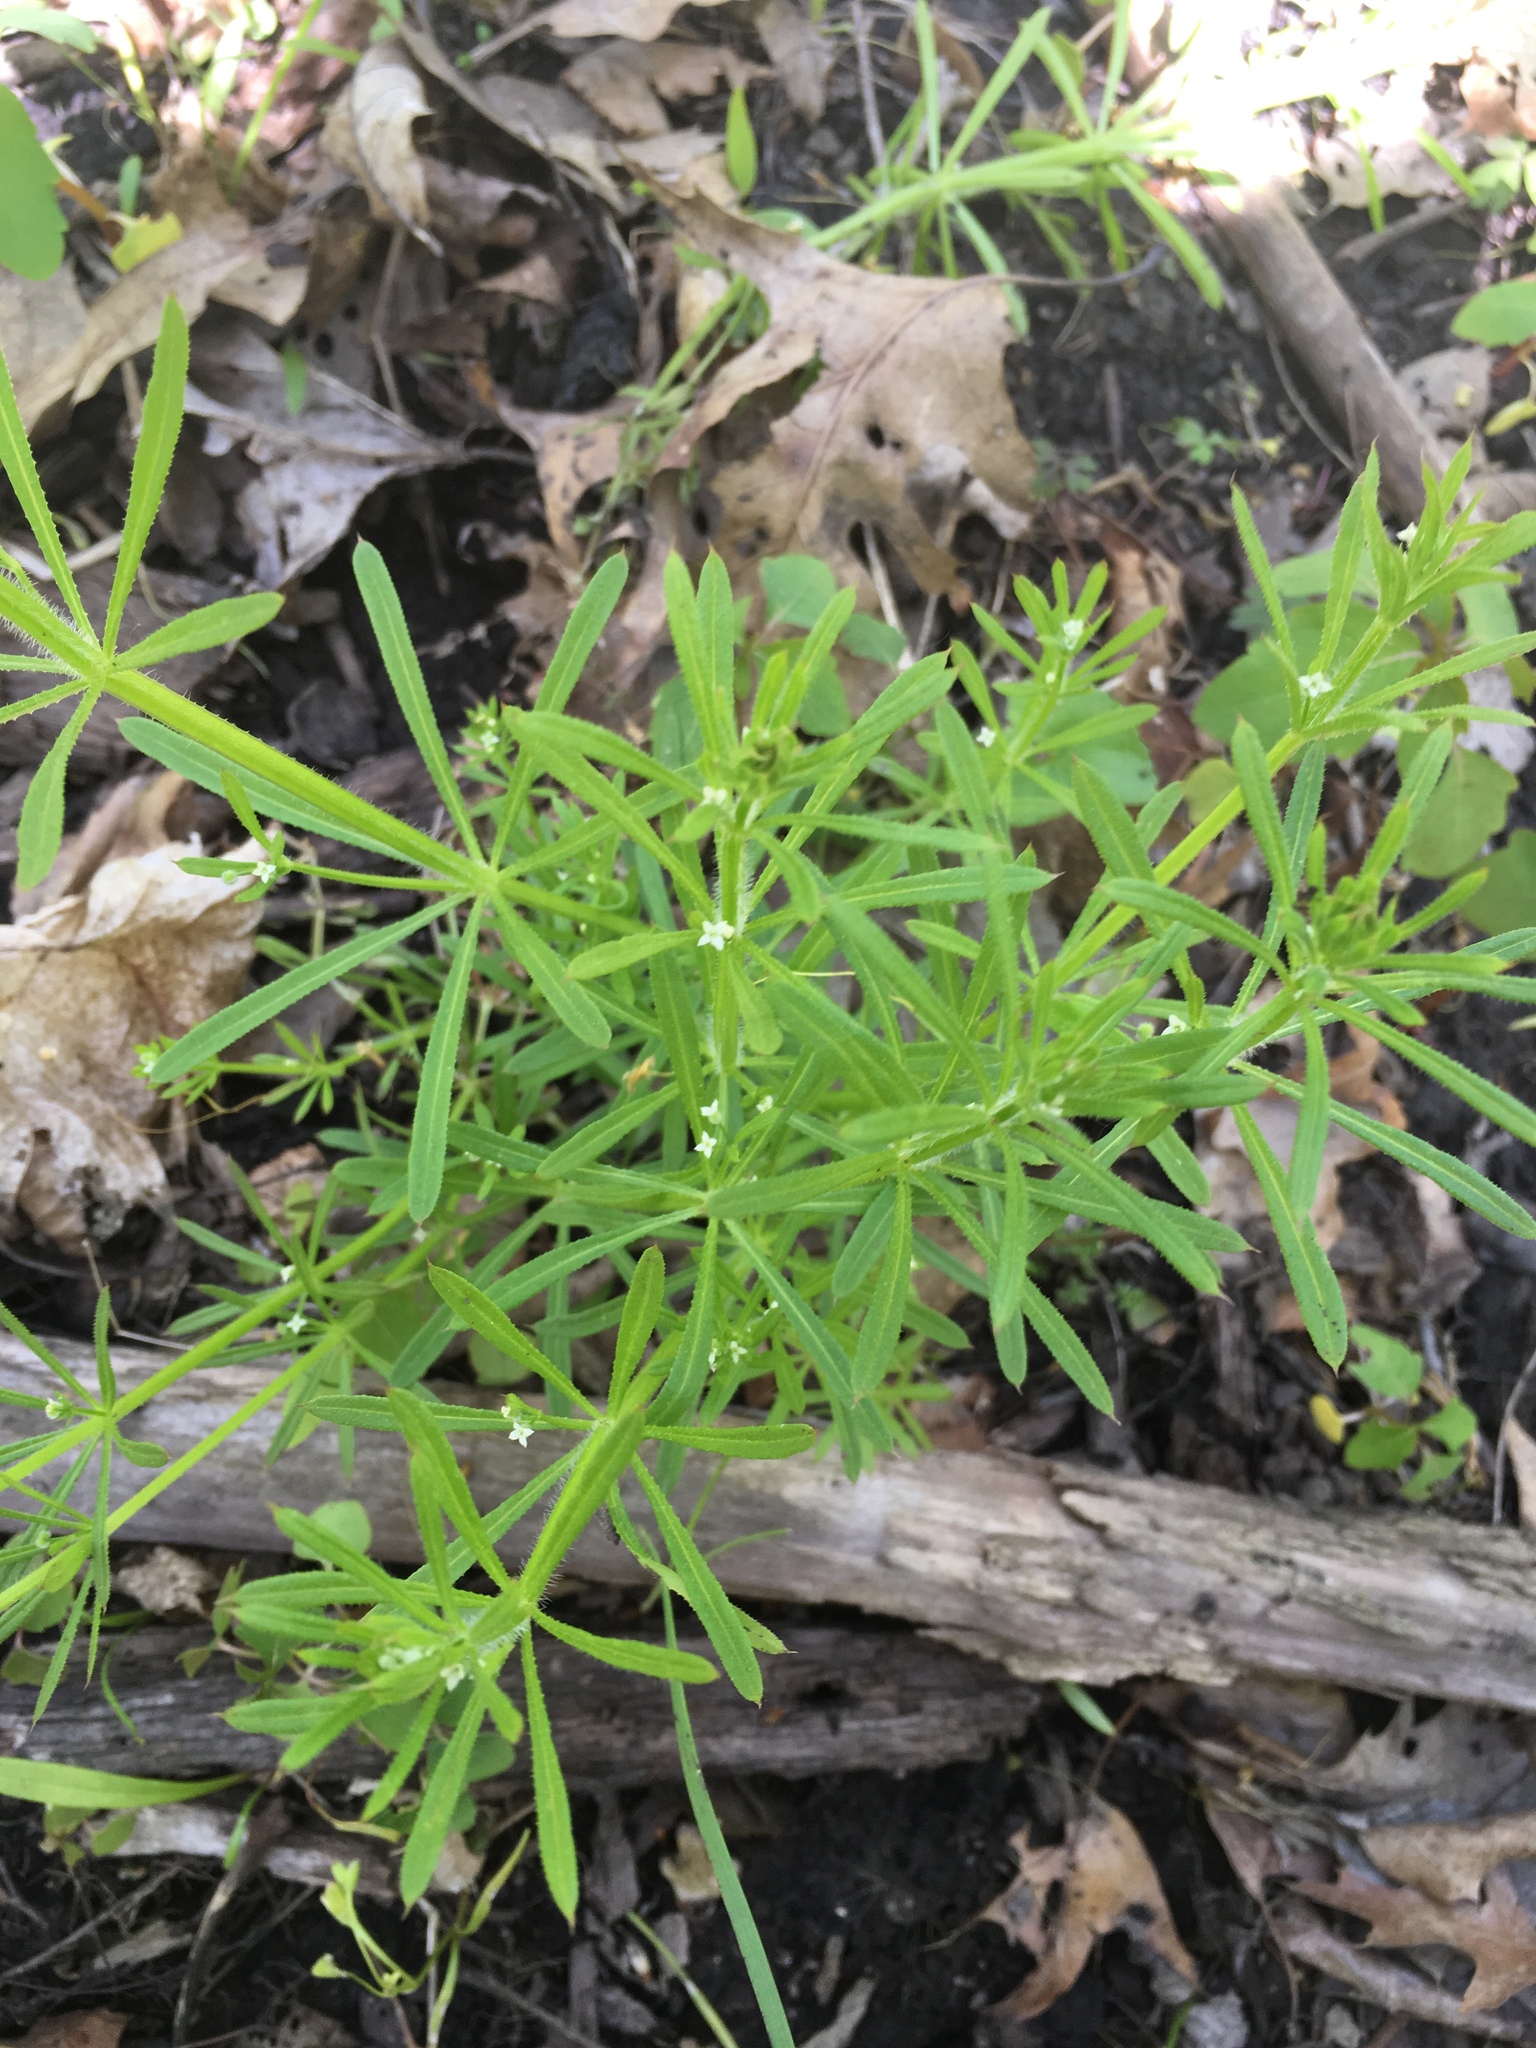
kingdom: Plantae
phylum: Tracheophyta
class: Magnoliopsida
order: Gentianales
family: Rubiaceae
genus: Galium
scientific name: Galium aparine
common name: Cleavers
